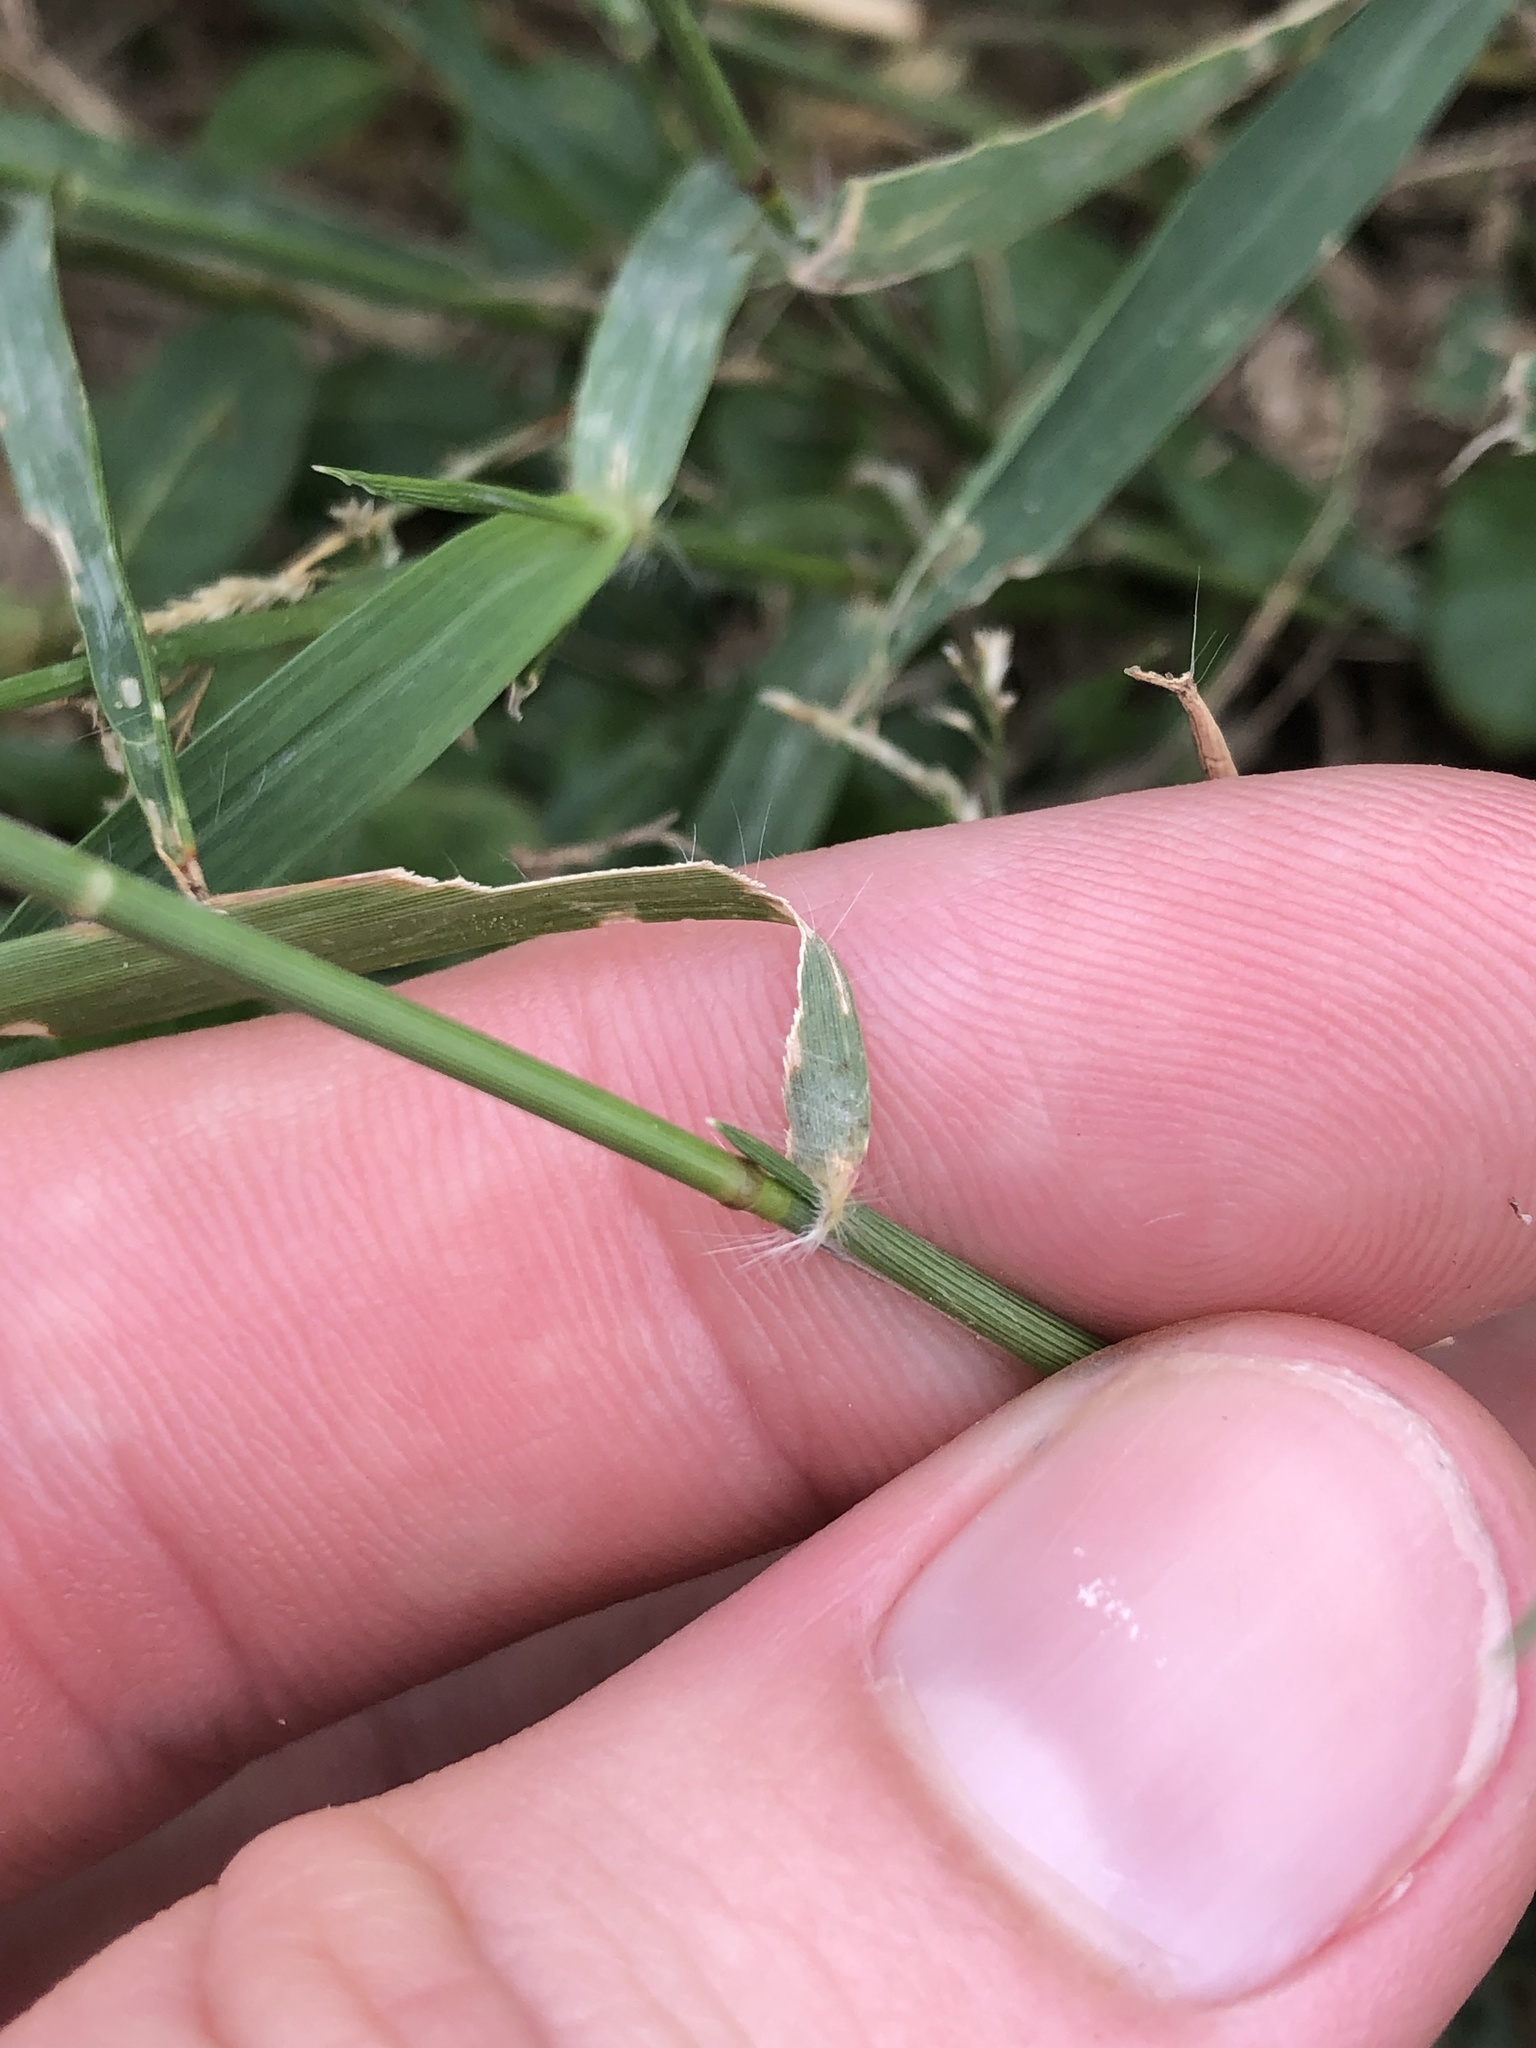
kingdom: Plantae
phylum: Tracheophyta
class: Liliopsida
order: Poales
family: Poaceae
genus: Eragrostis
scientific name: Eragrostis barrelieri
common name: Mediterranean lovegrass
